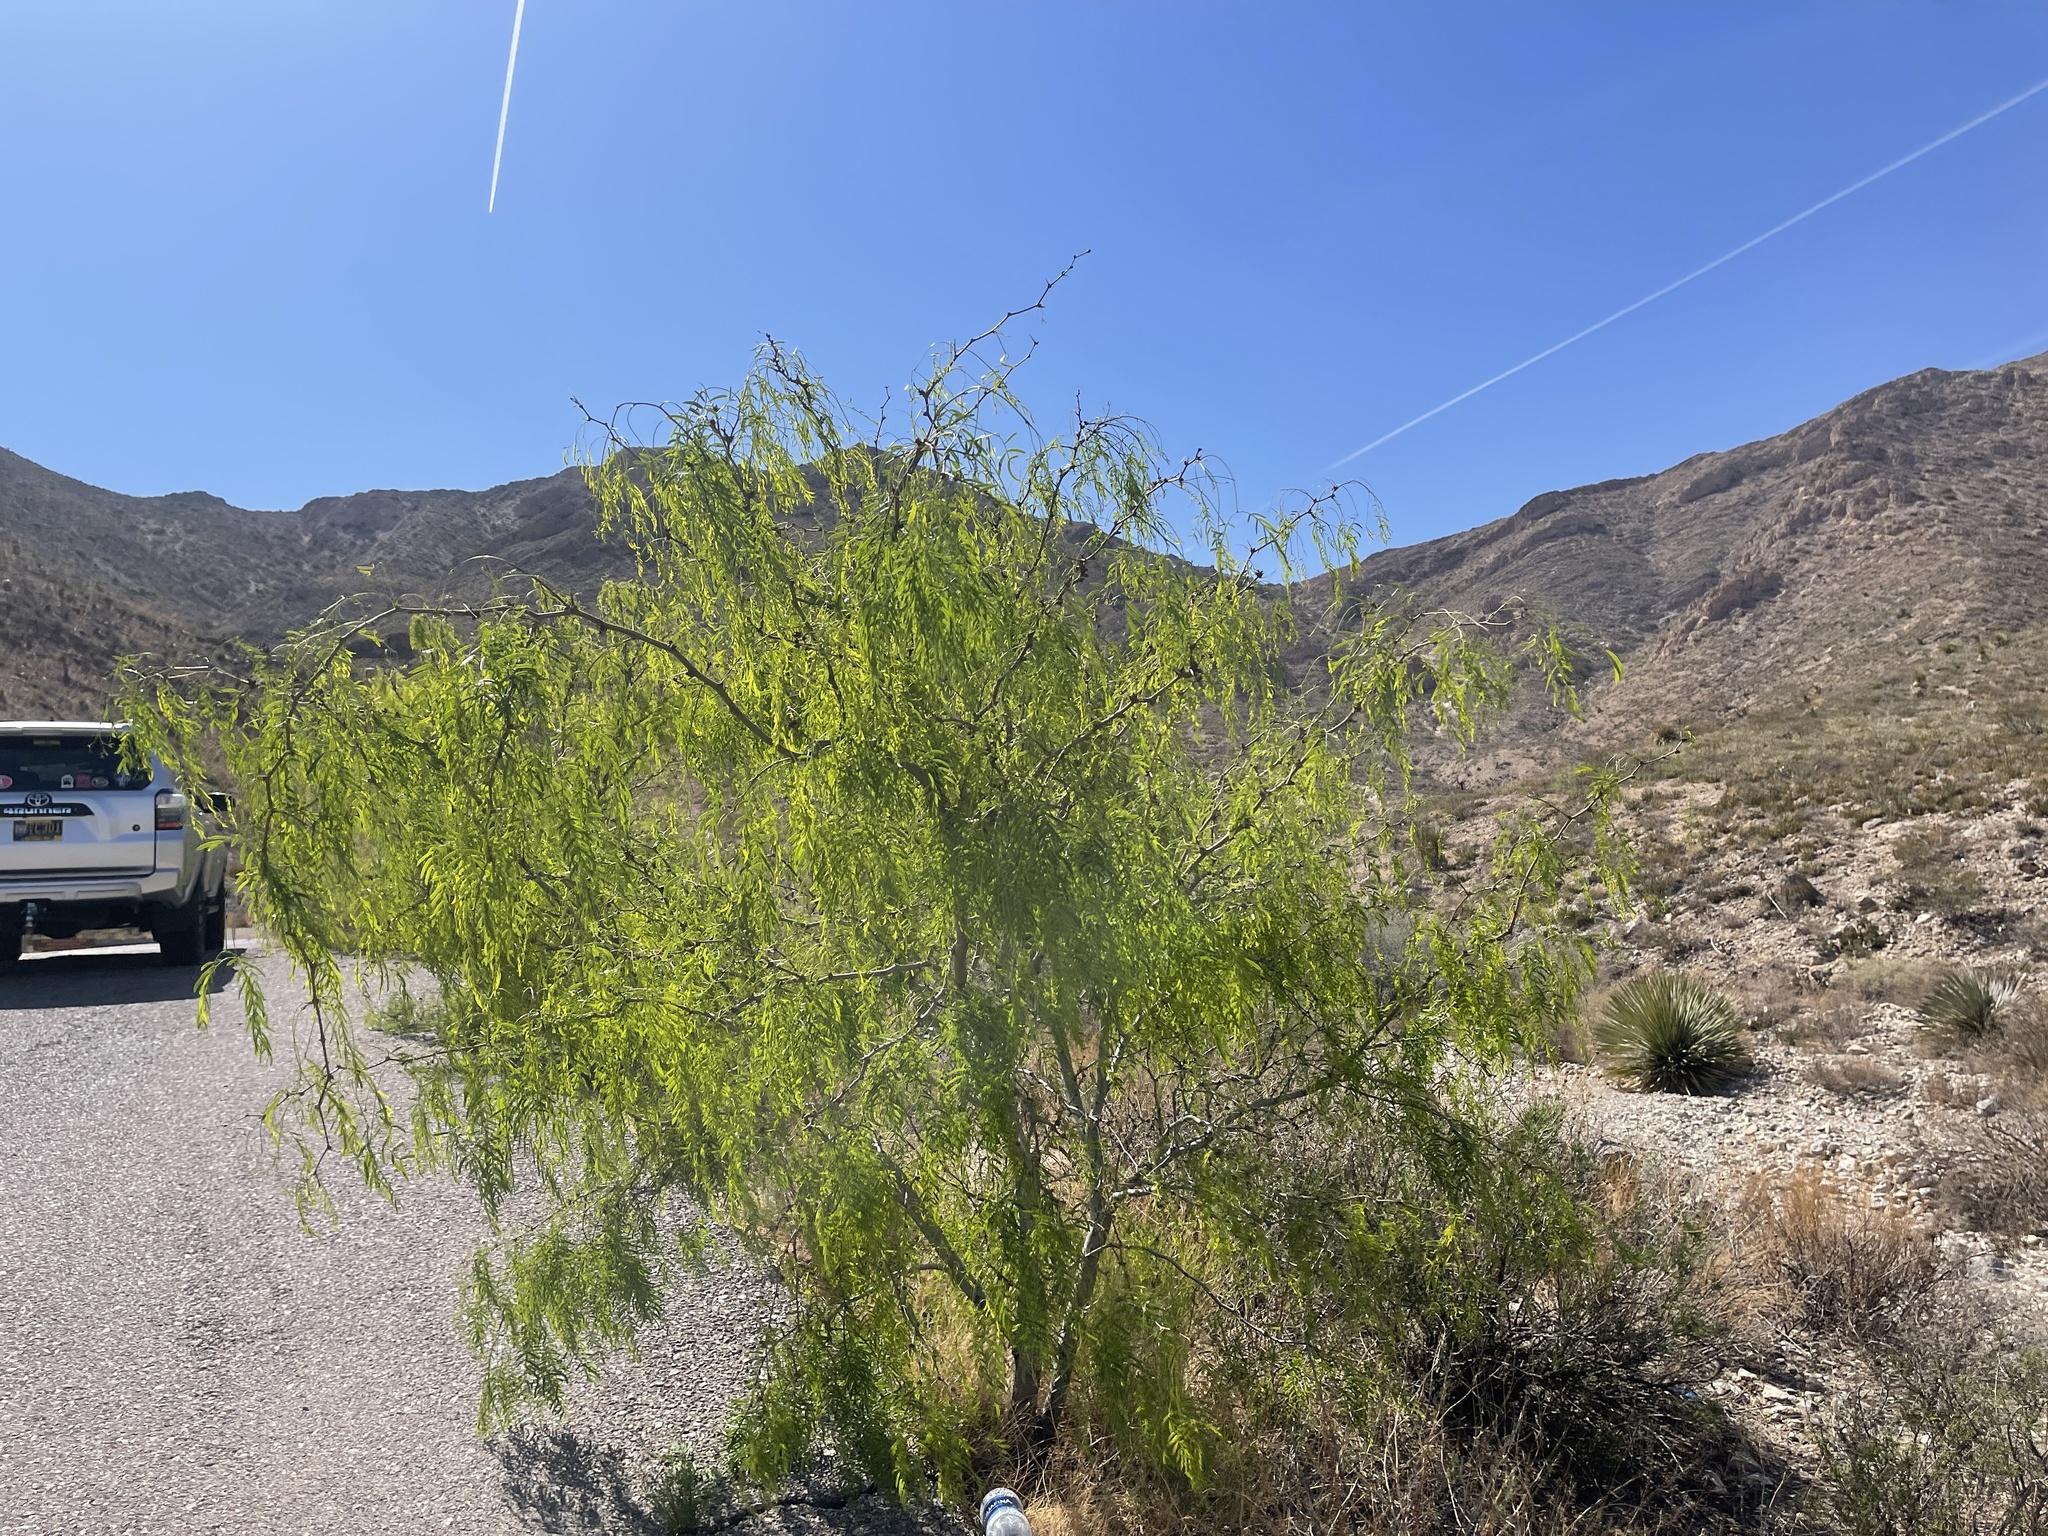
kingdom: Plantae
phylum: Tracheophyta
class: Magnoliopsida
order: Fabales
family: Fabaceae
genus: Prosopis
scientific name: Prosopis glandulosa
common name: Honey mesquite
